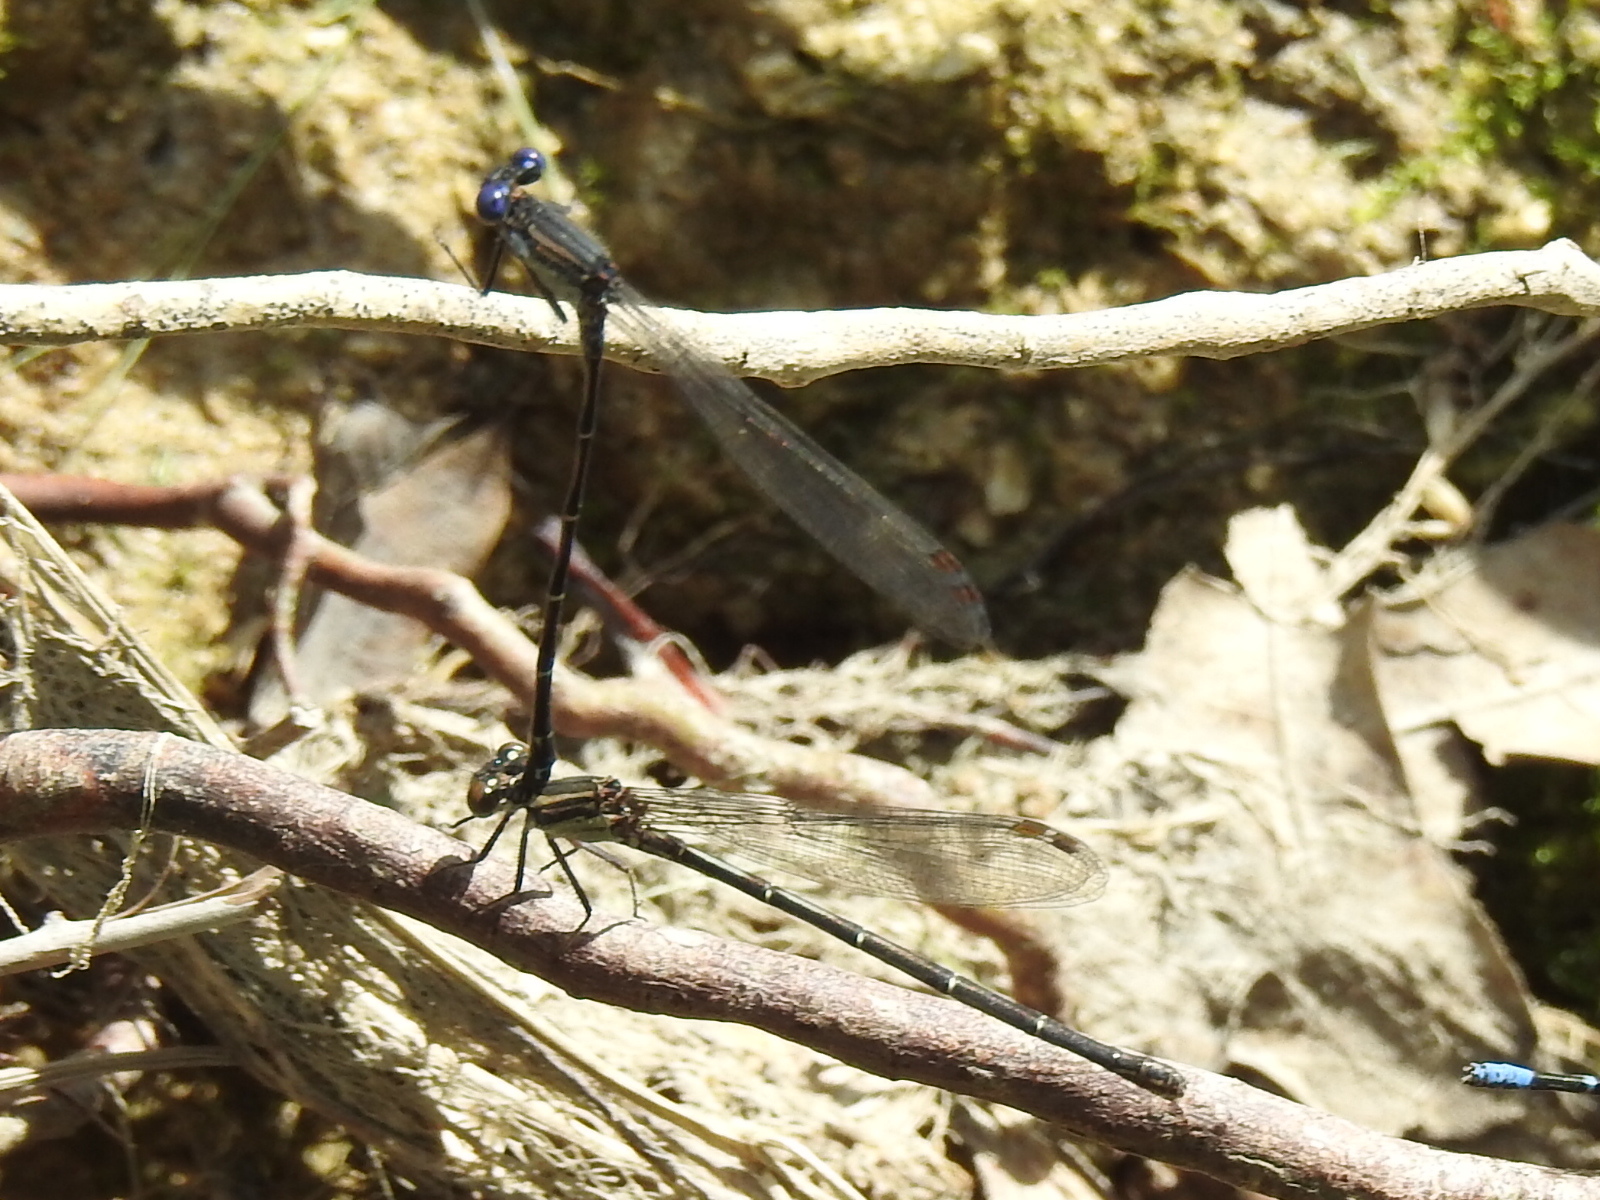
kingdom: Animalia
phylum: Arthropoda
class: Insecta
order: Odonata
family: Coenagrionidae
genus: Argia
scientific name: Argia translata
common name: Dusky dancer
